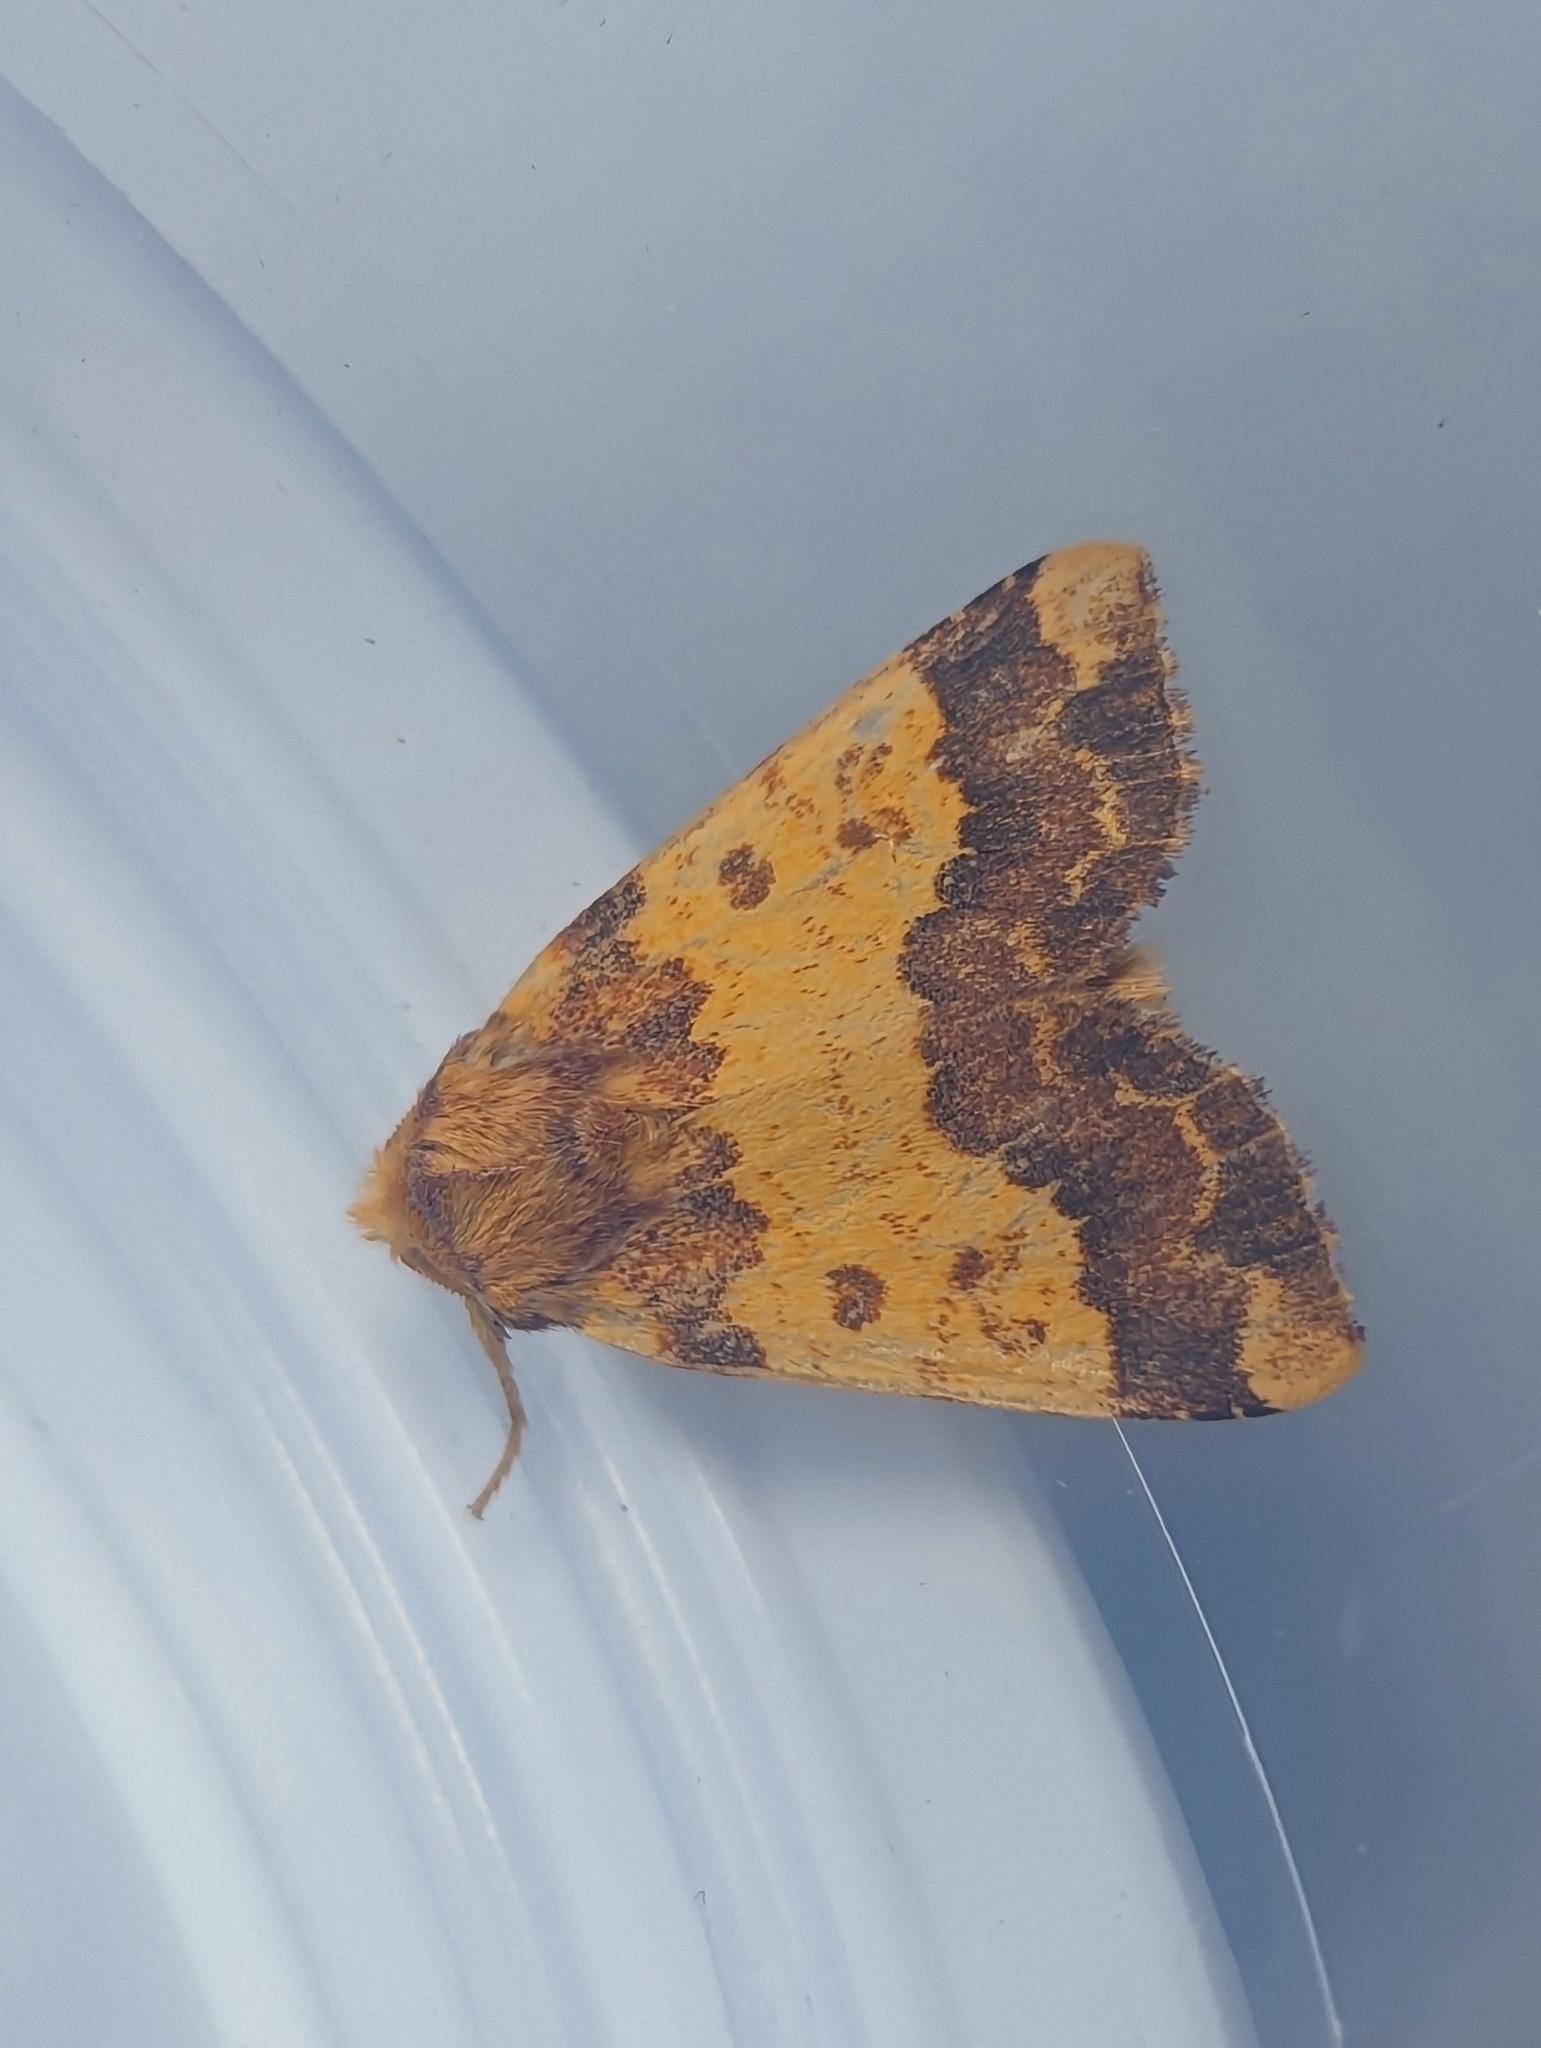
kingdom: Animalia
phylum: Arthropoda
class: Insecta
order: Lepidoptera
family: Noctuidae
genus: Tiliacea
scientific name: Tiliacea aurago
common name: Barred sallow
